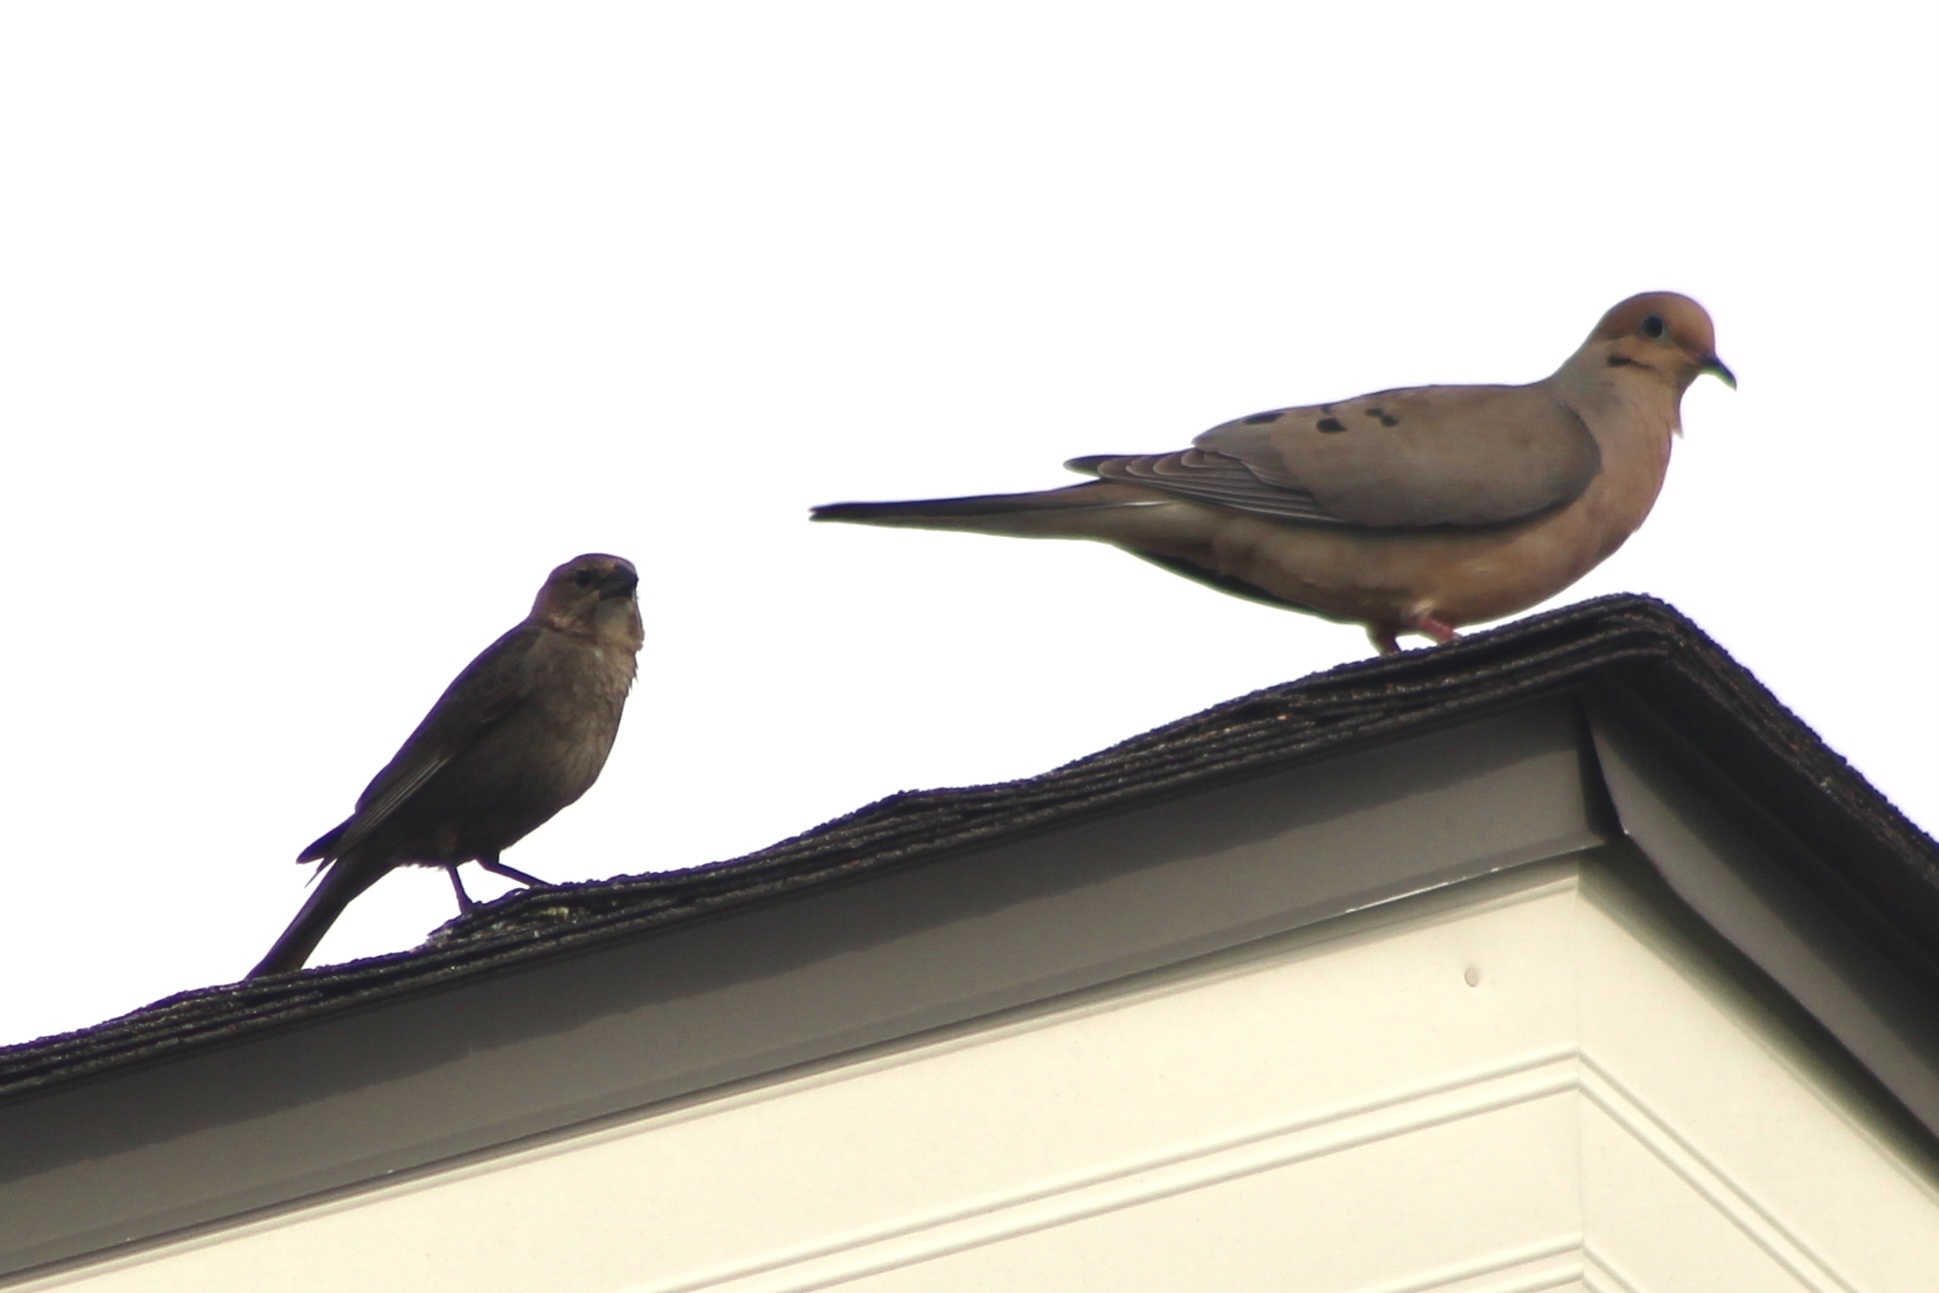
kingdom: Animalia
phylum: Chordata
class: Aves
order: Passeriformes
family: Icteridae
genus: Molothrus
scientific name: Molothrus ater
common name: Brown-headed cowbird
